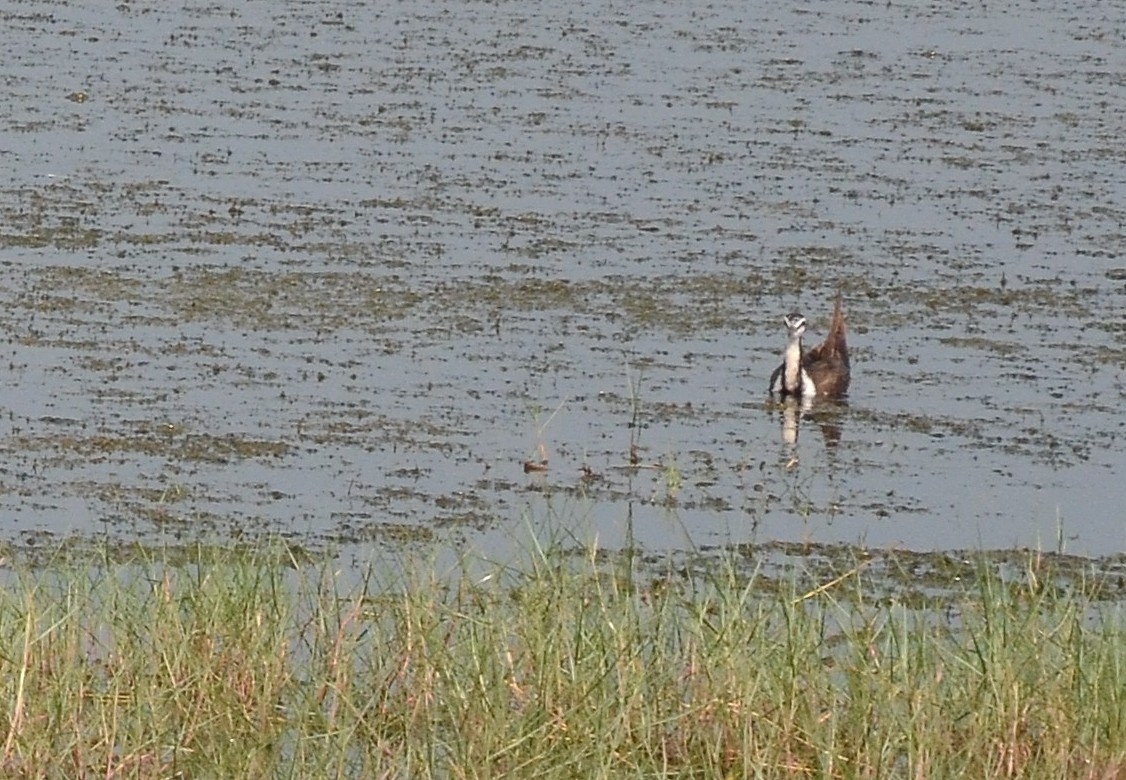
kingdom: Animalia
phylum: Chordata
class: Aves
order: Charadriiformes
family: Jacanidae
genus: Hydrophasianus
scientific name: Hydrophasianus chirurgus
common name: Pheasant-tailed jacana
